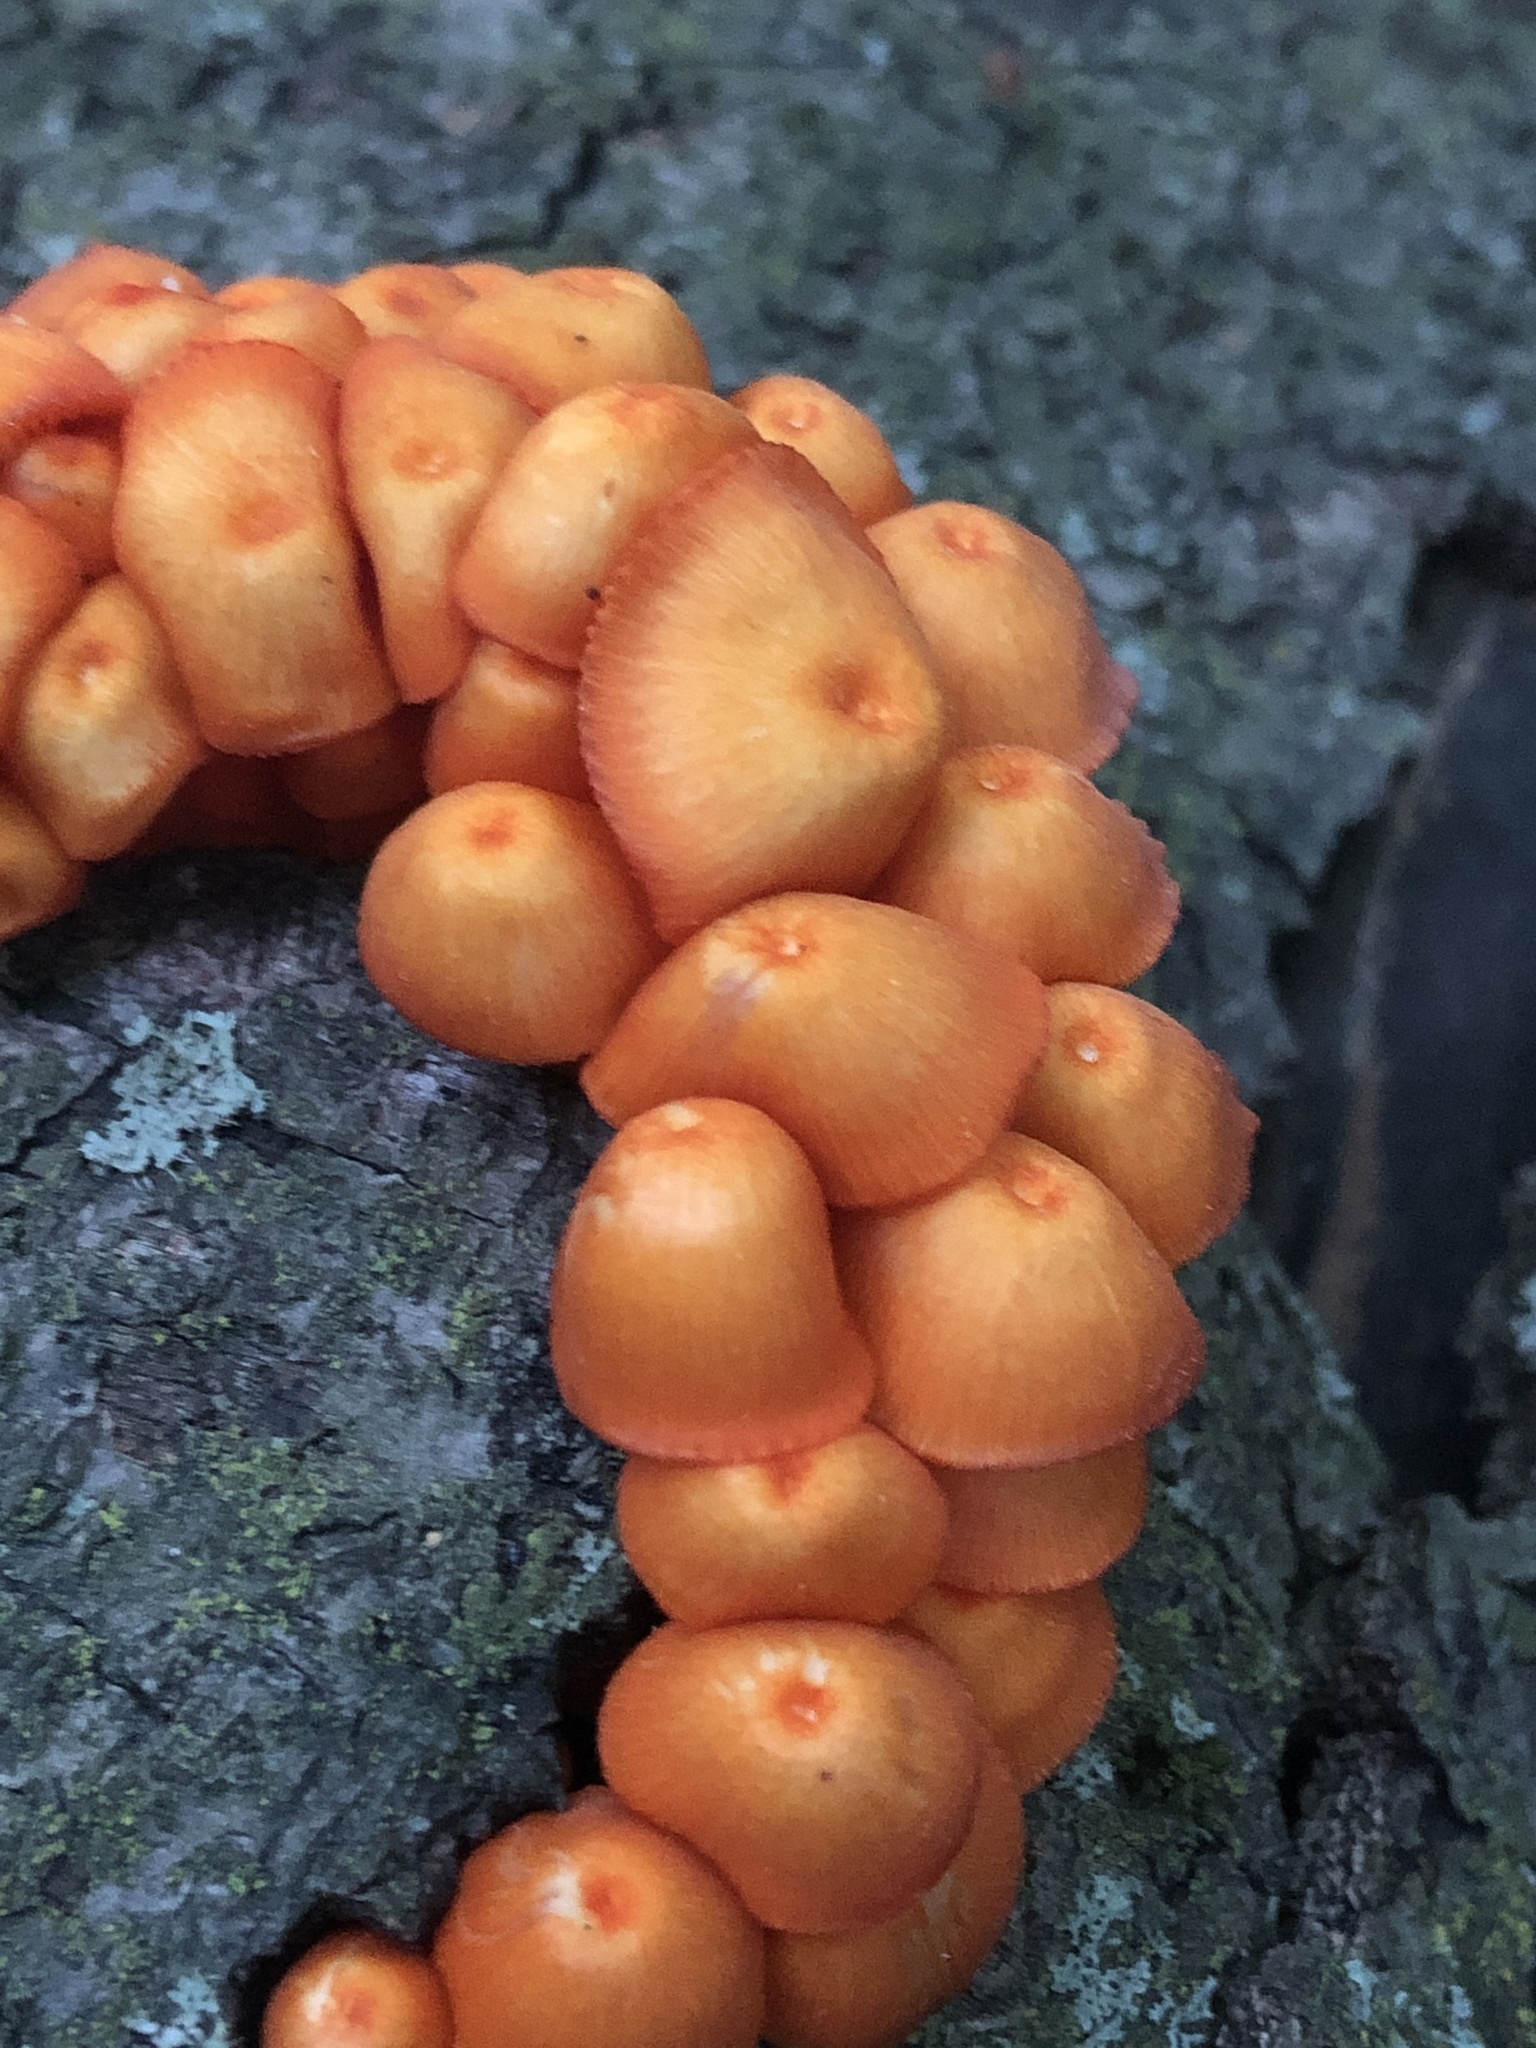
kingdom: Fungi
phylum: Basidiomycota
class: Agaricomycetes
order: Agaricales
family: Mycenaceae
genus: Mycena
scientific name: Mycena leaiana
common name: Orange mycena
